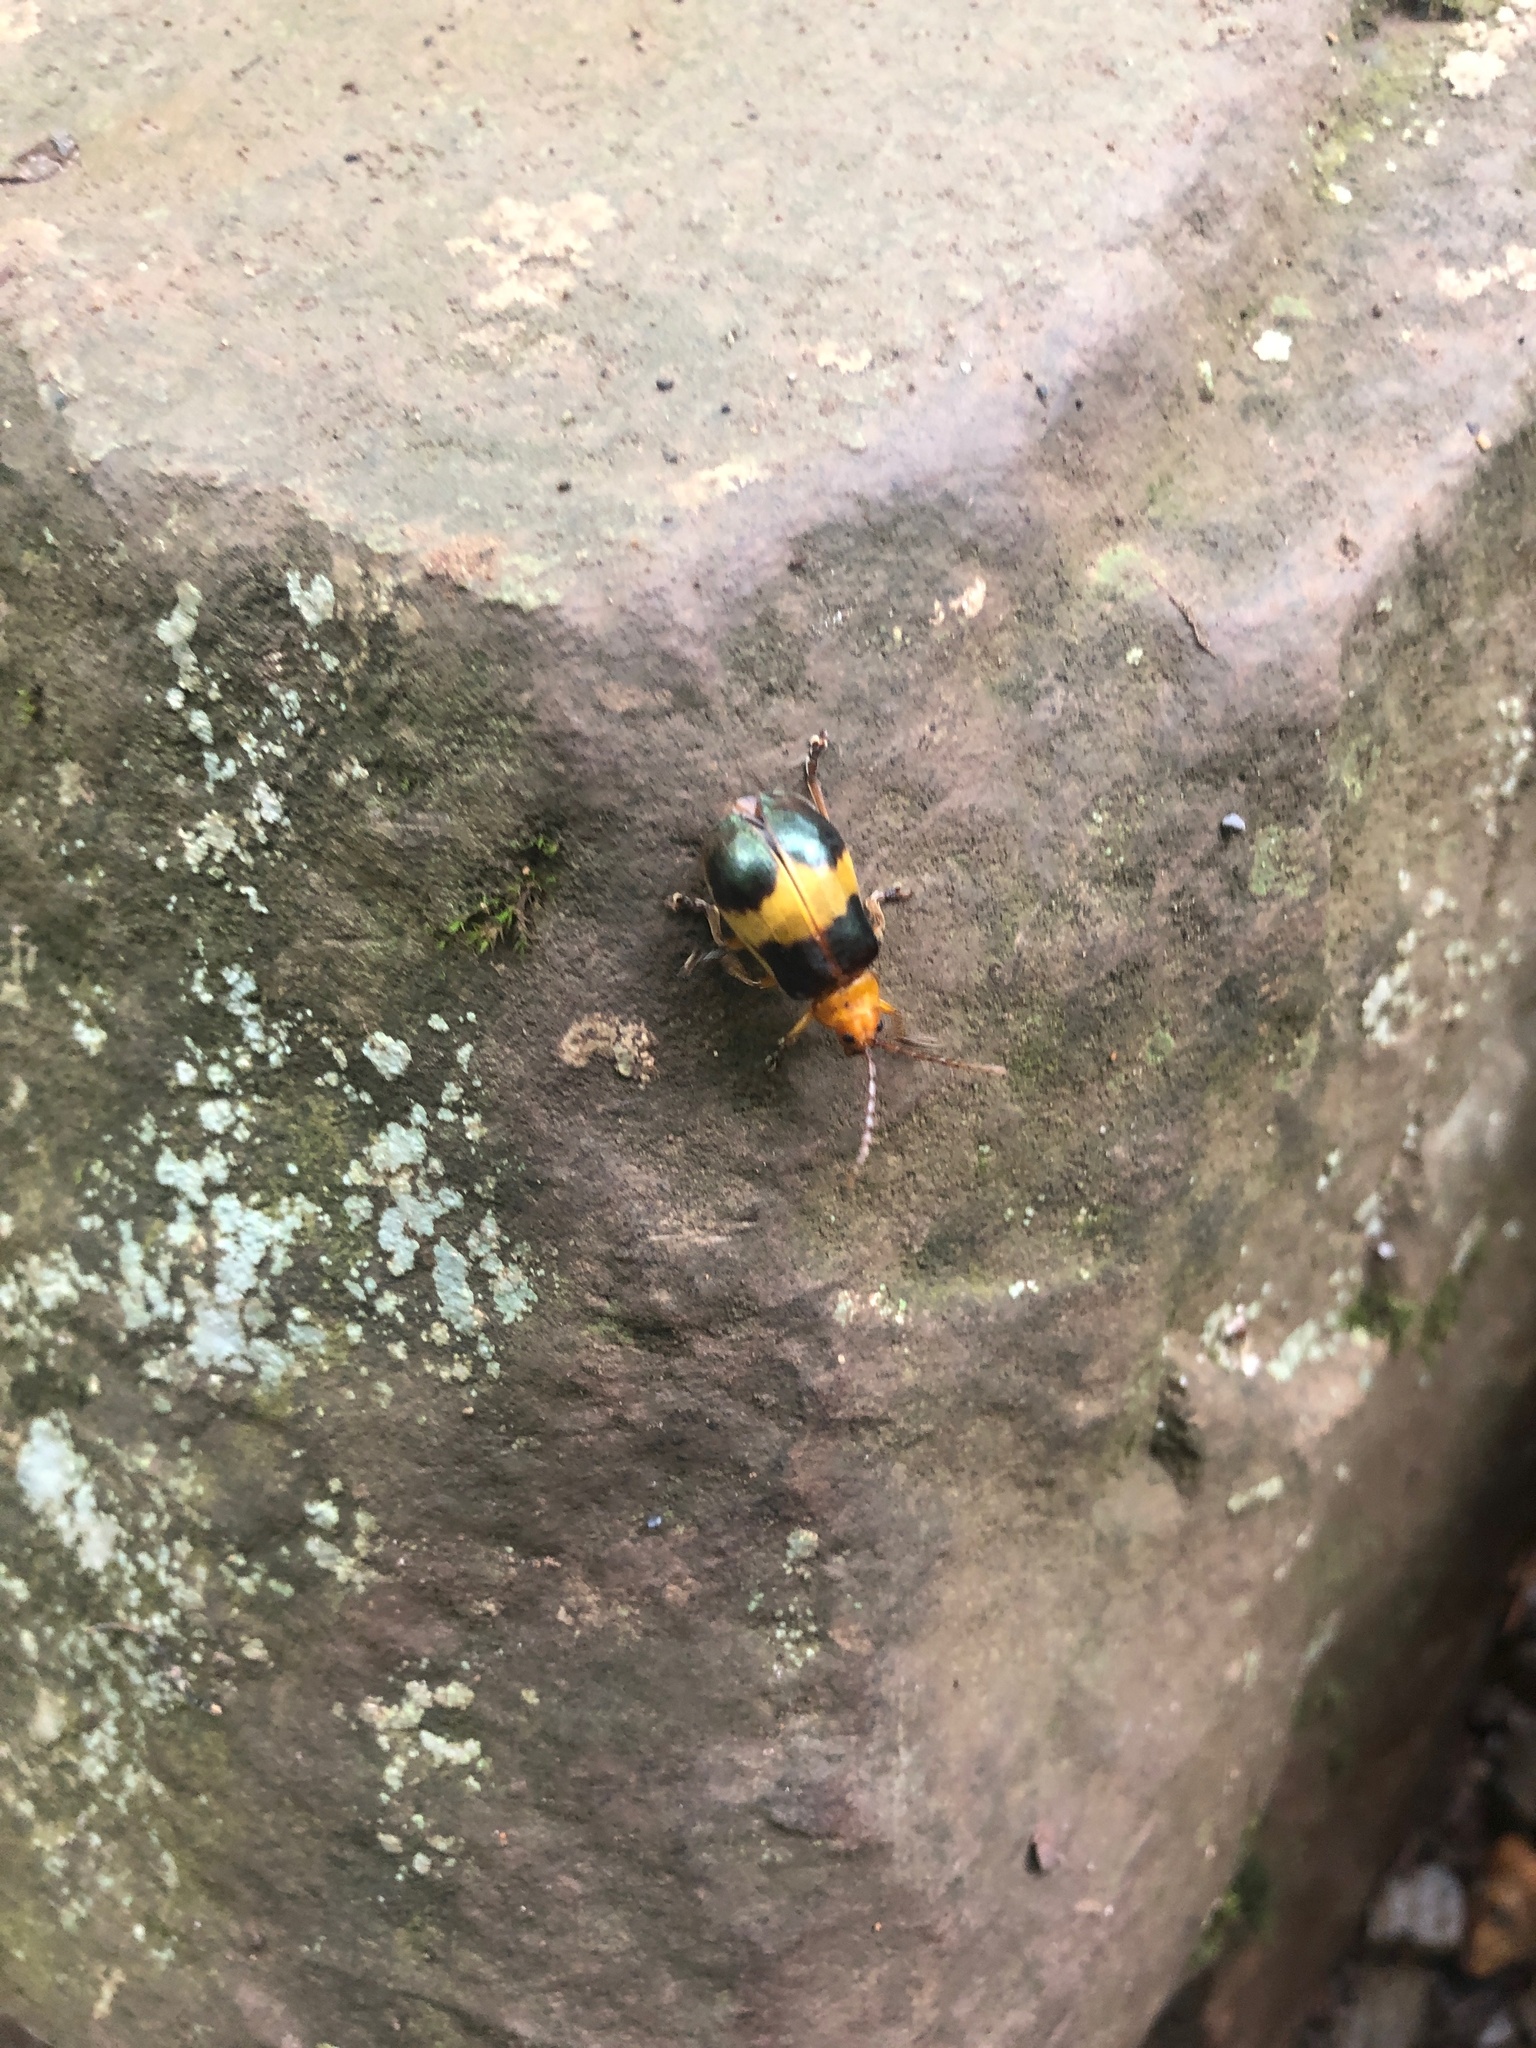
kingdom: Animalia
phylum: Arthropoda
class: Insecta
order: Coleoptera
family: Chrysomelidae
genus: Monocesta
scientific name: Monocesta coryli
